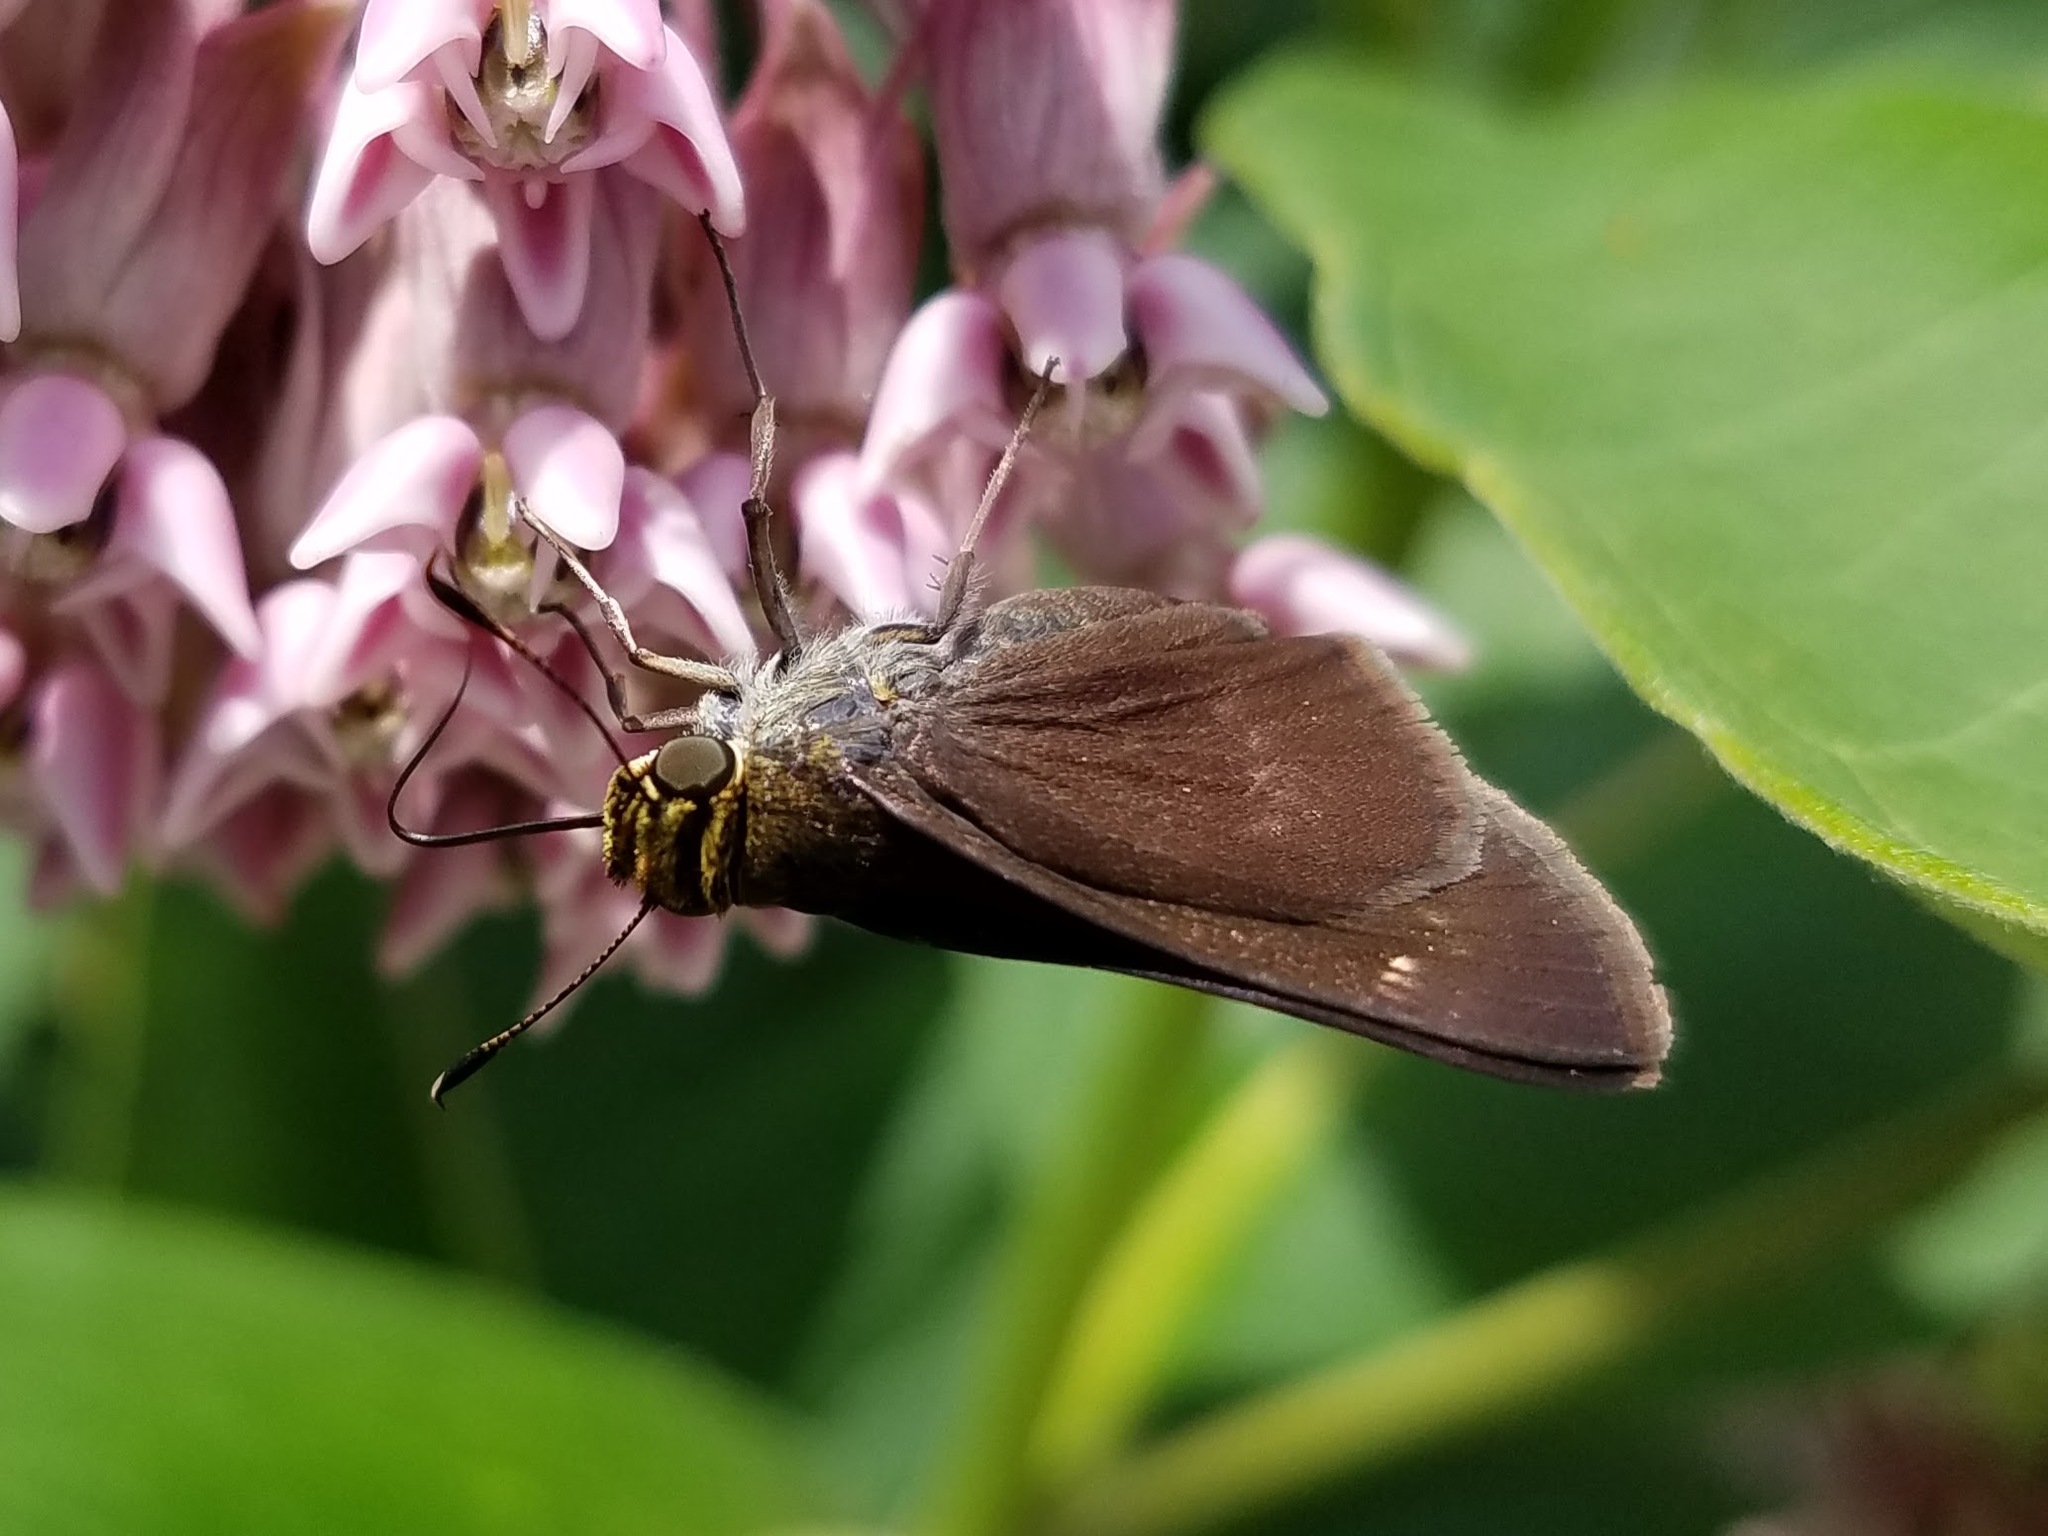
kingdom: Animalia
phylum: Arthropoda
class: Insecta
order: Lepidoptera
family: Hesperiidae
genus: Euphyes
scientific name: Euphyes vestris
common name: Dun skipper
